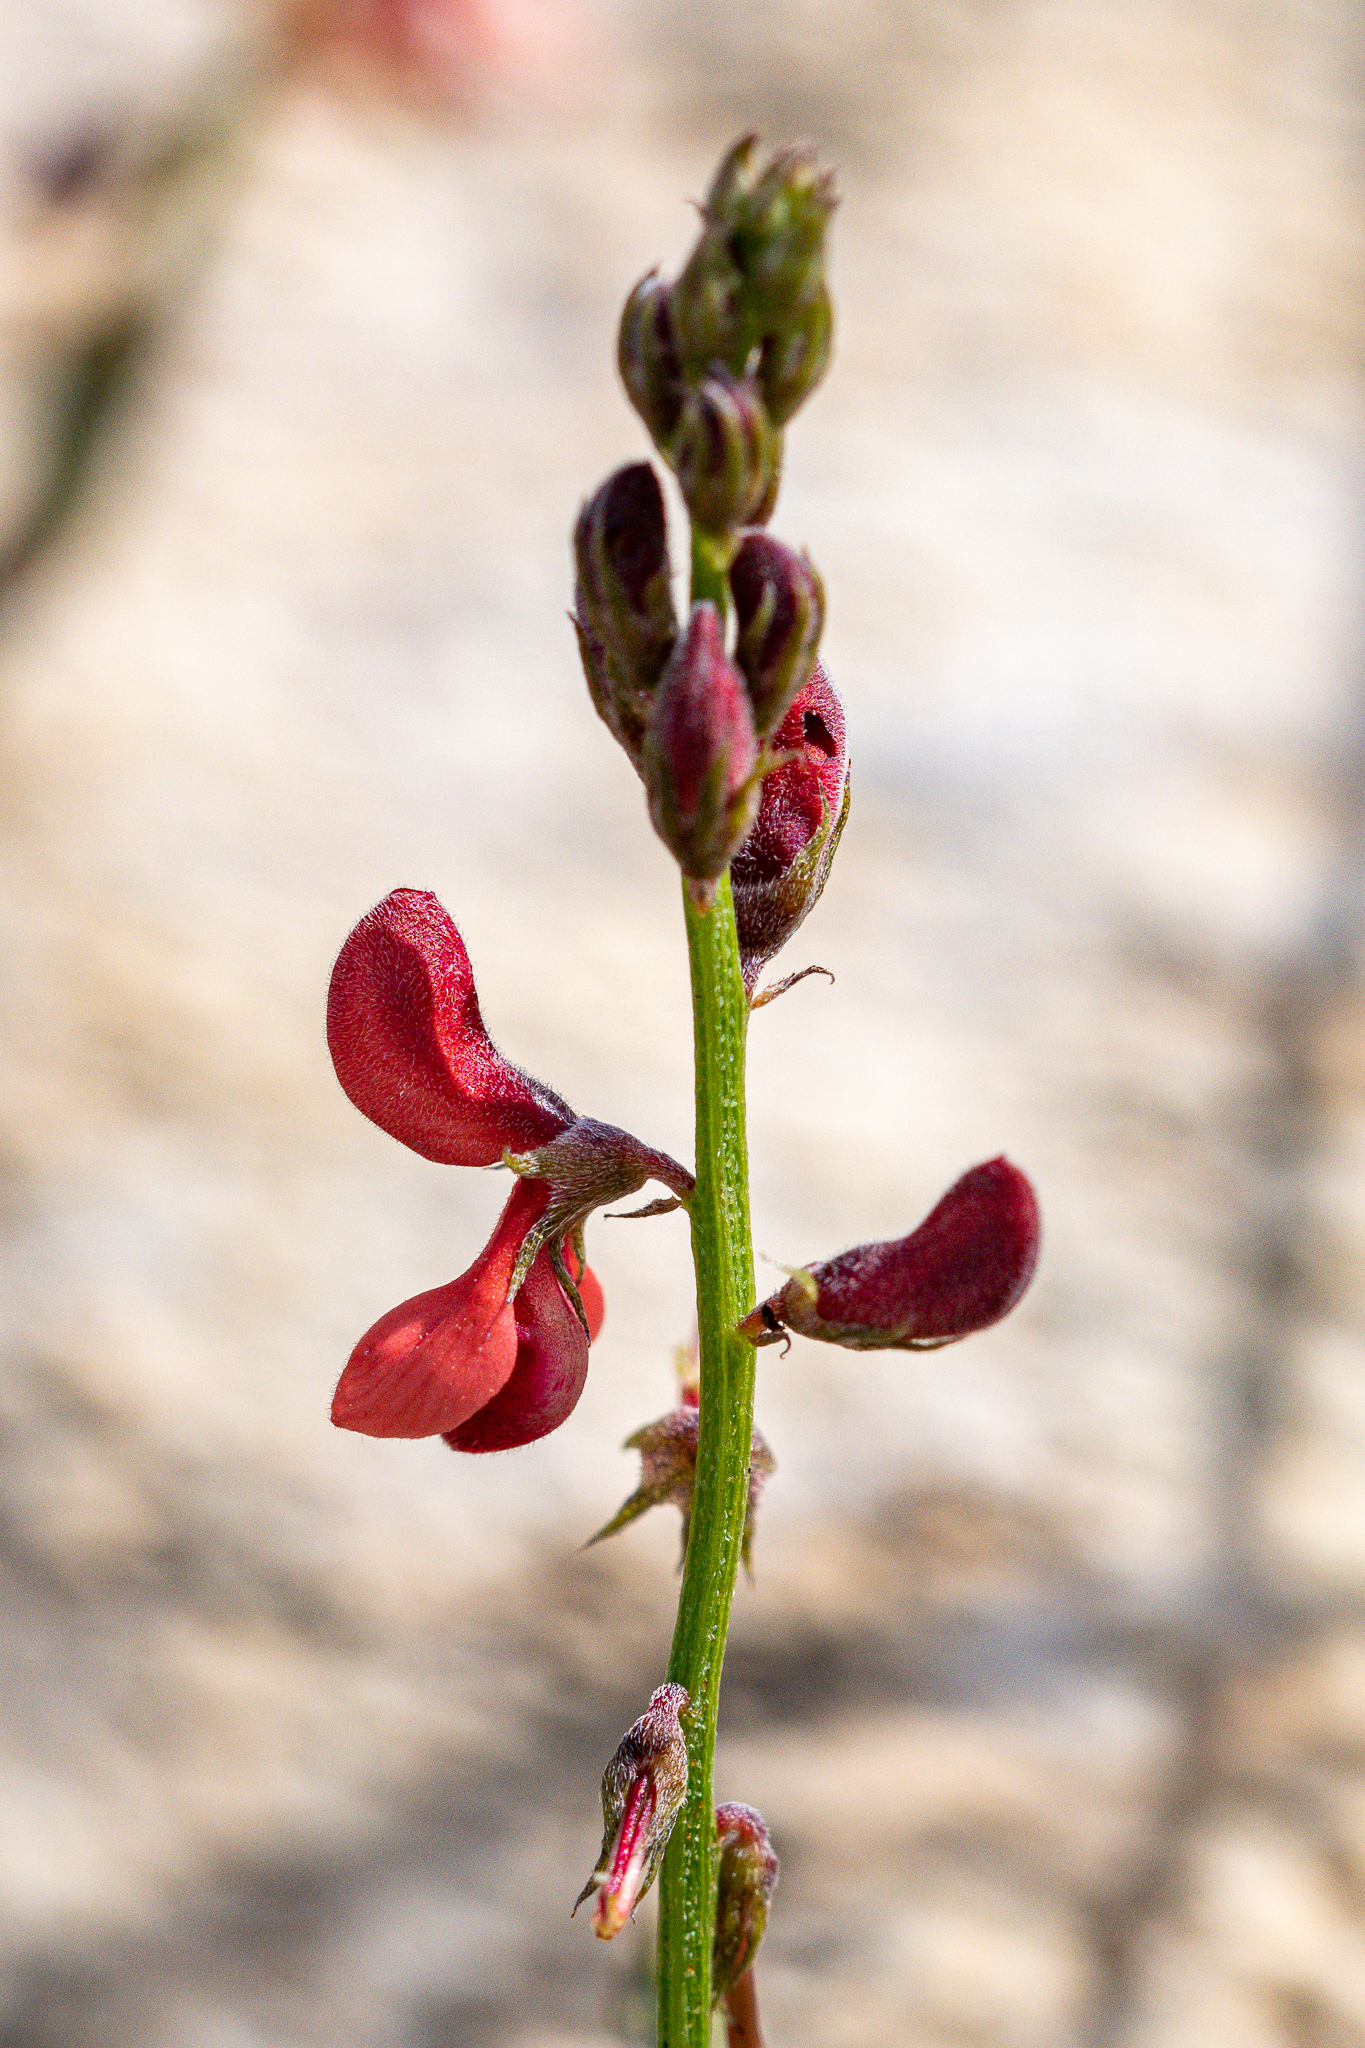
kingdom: Plantae
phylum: Tracheophyta
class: Magnoliopsida
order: Fabales
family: Fabaceae
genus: Indigofera
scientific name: Indigofera heterophylla
